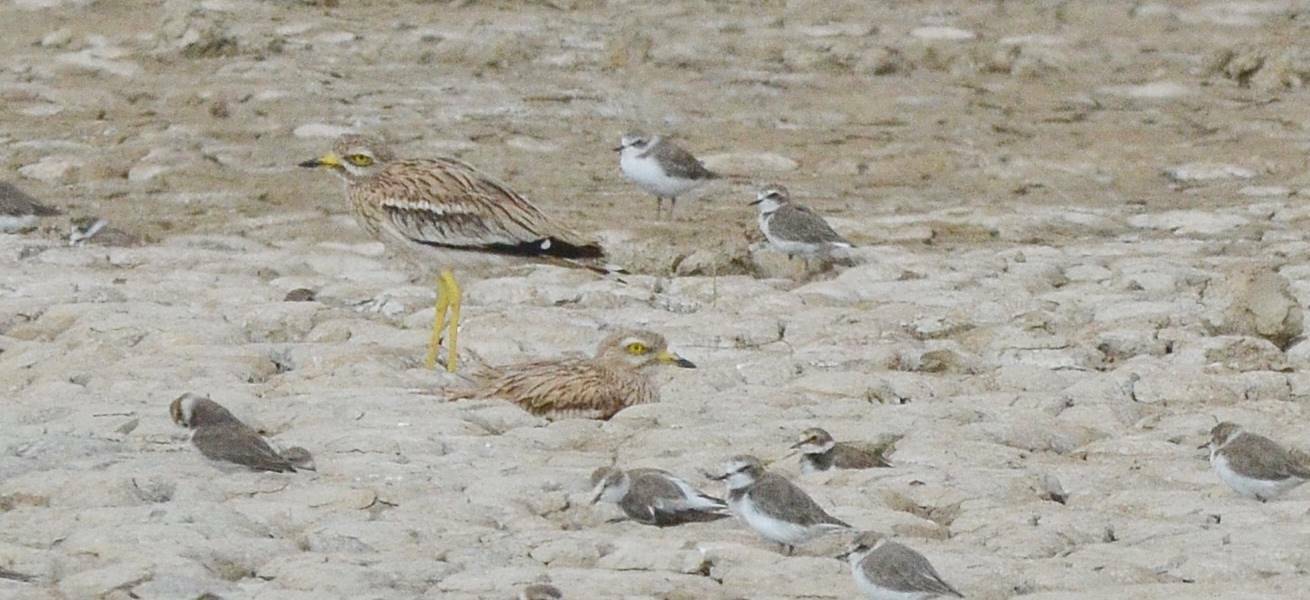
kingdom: Animalia
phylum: Chordata
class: Aves
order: Charadriiformes
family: Burhinidae
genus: Burhinus
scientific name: Burhinus oedicnemus
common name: Eurasian stone-curlew
